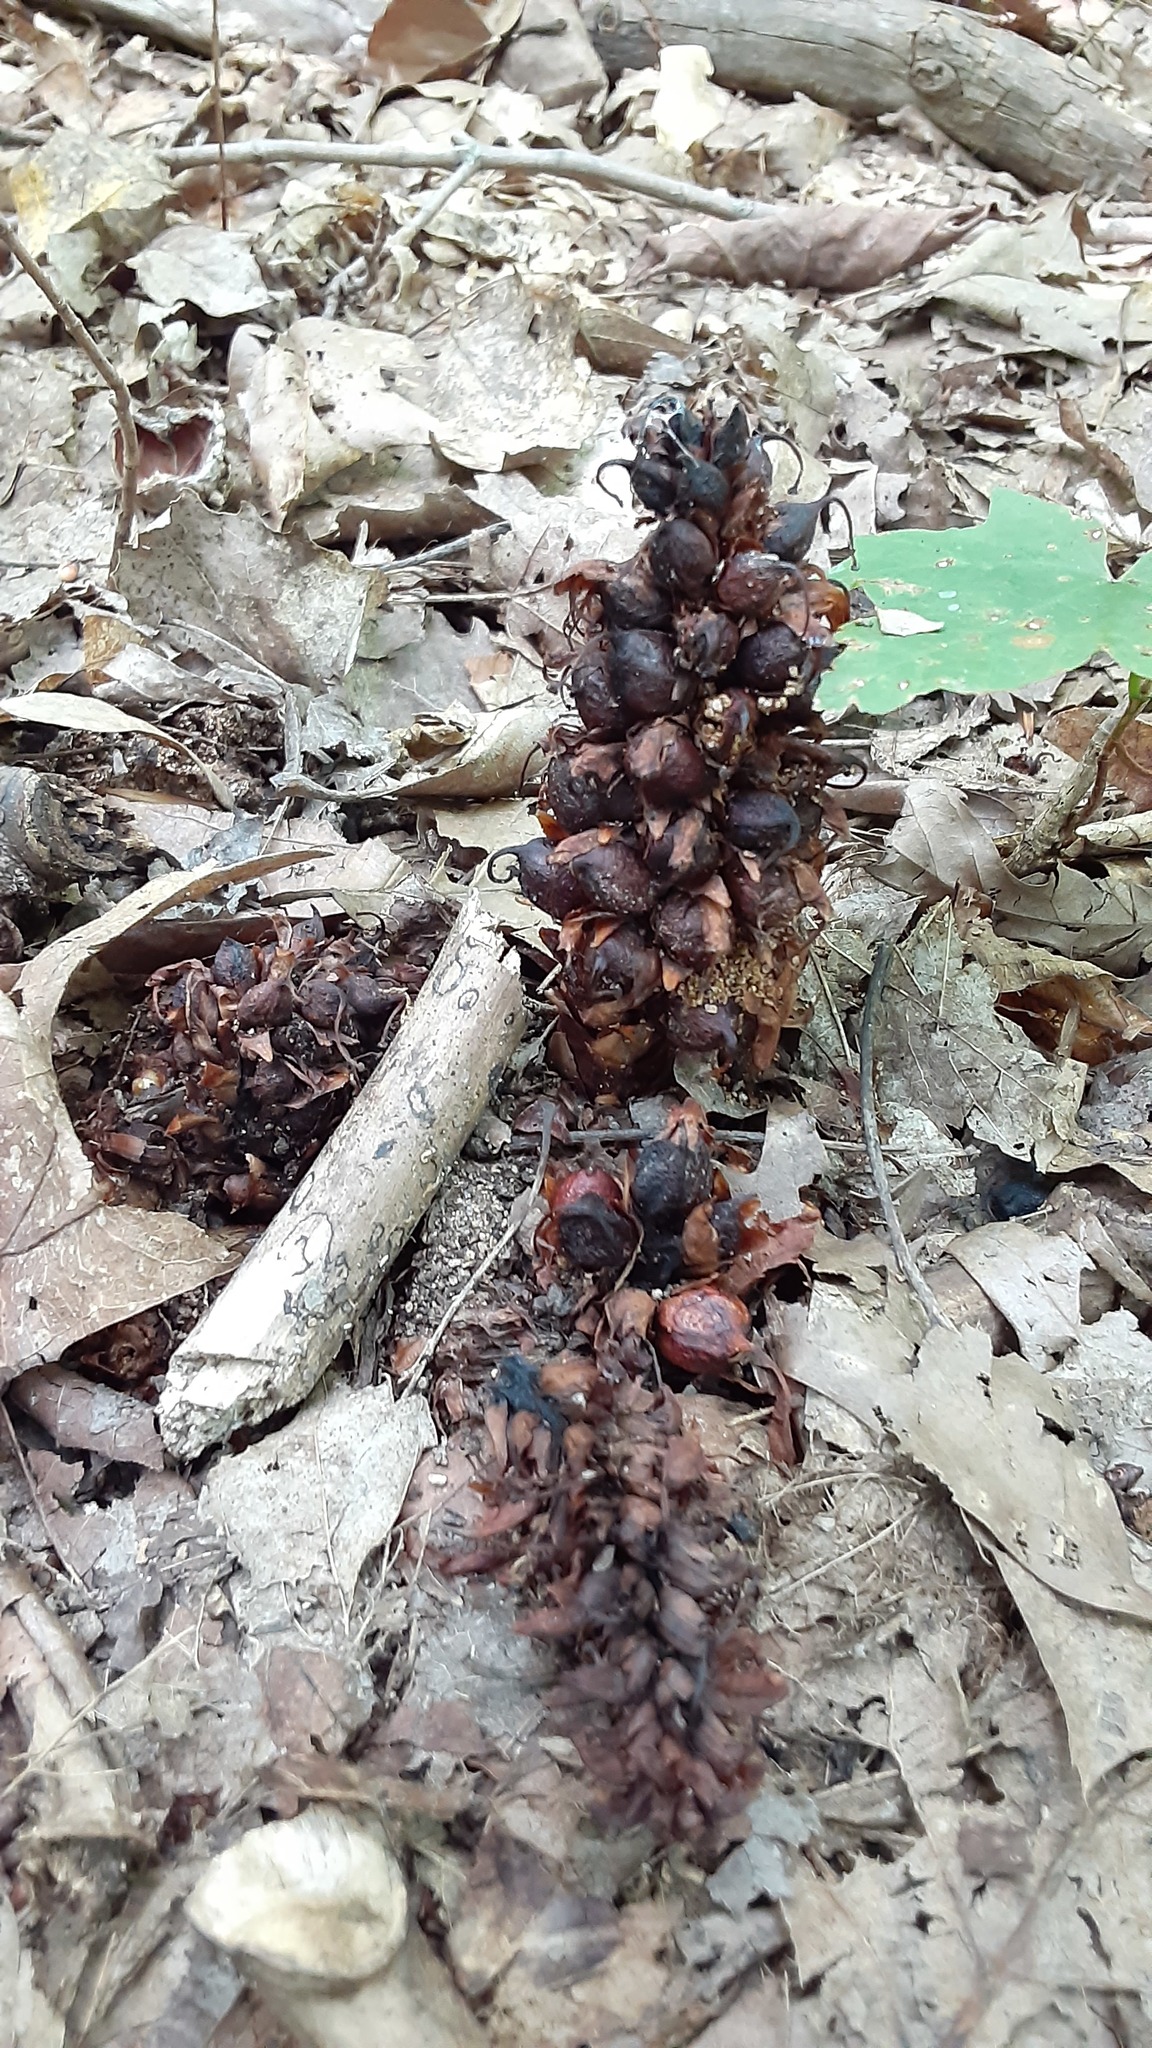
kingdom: Plantae
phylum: Tracheophyta
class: Magnoliopsida
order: Lamiales
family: Orobanchaceae
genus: Conopholis
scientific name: Conopholis americana
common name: American cancer-root
